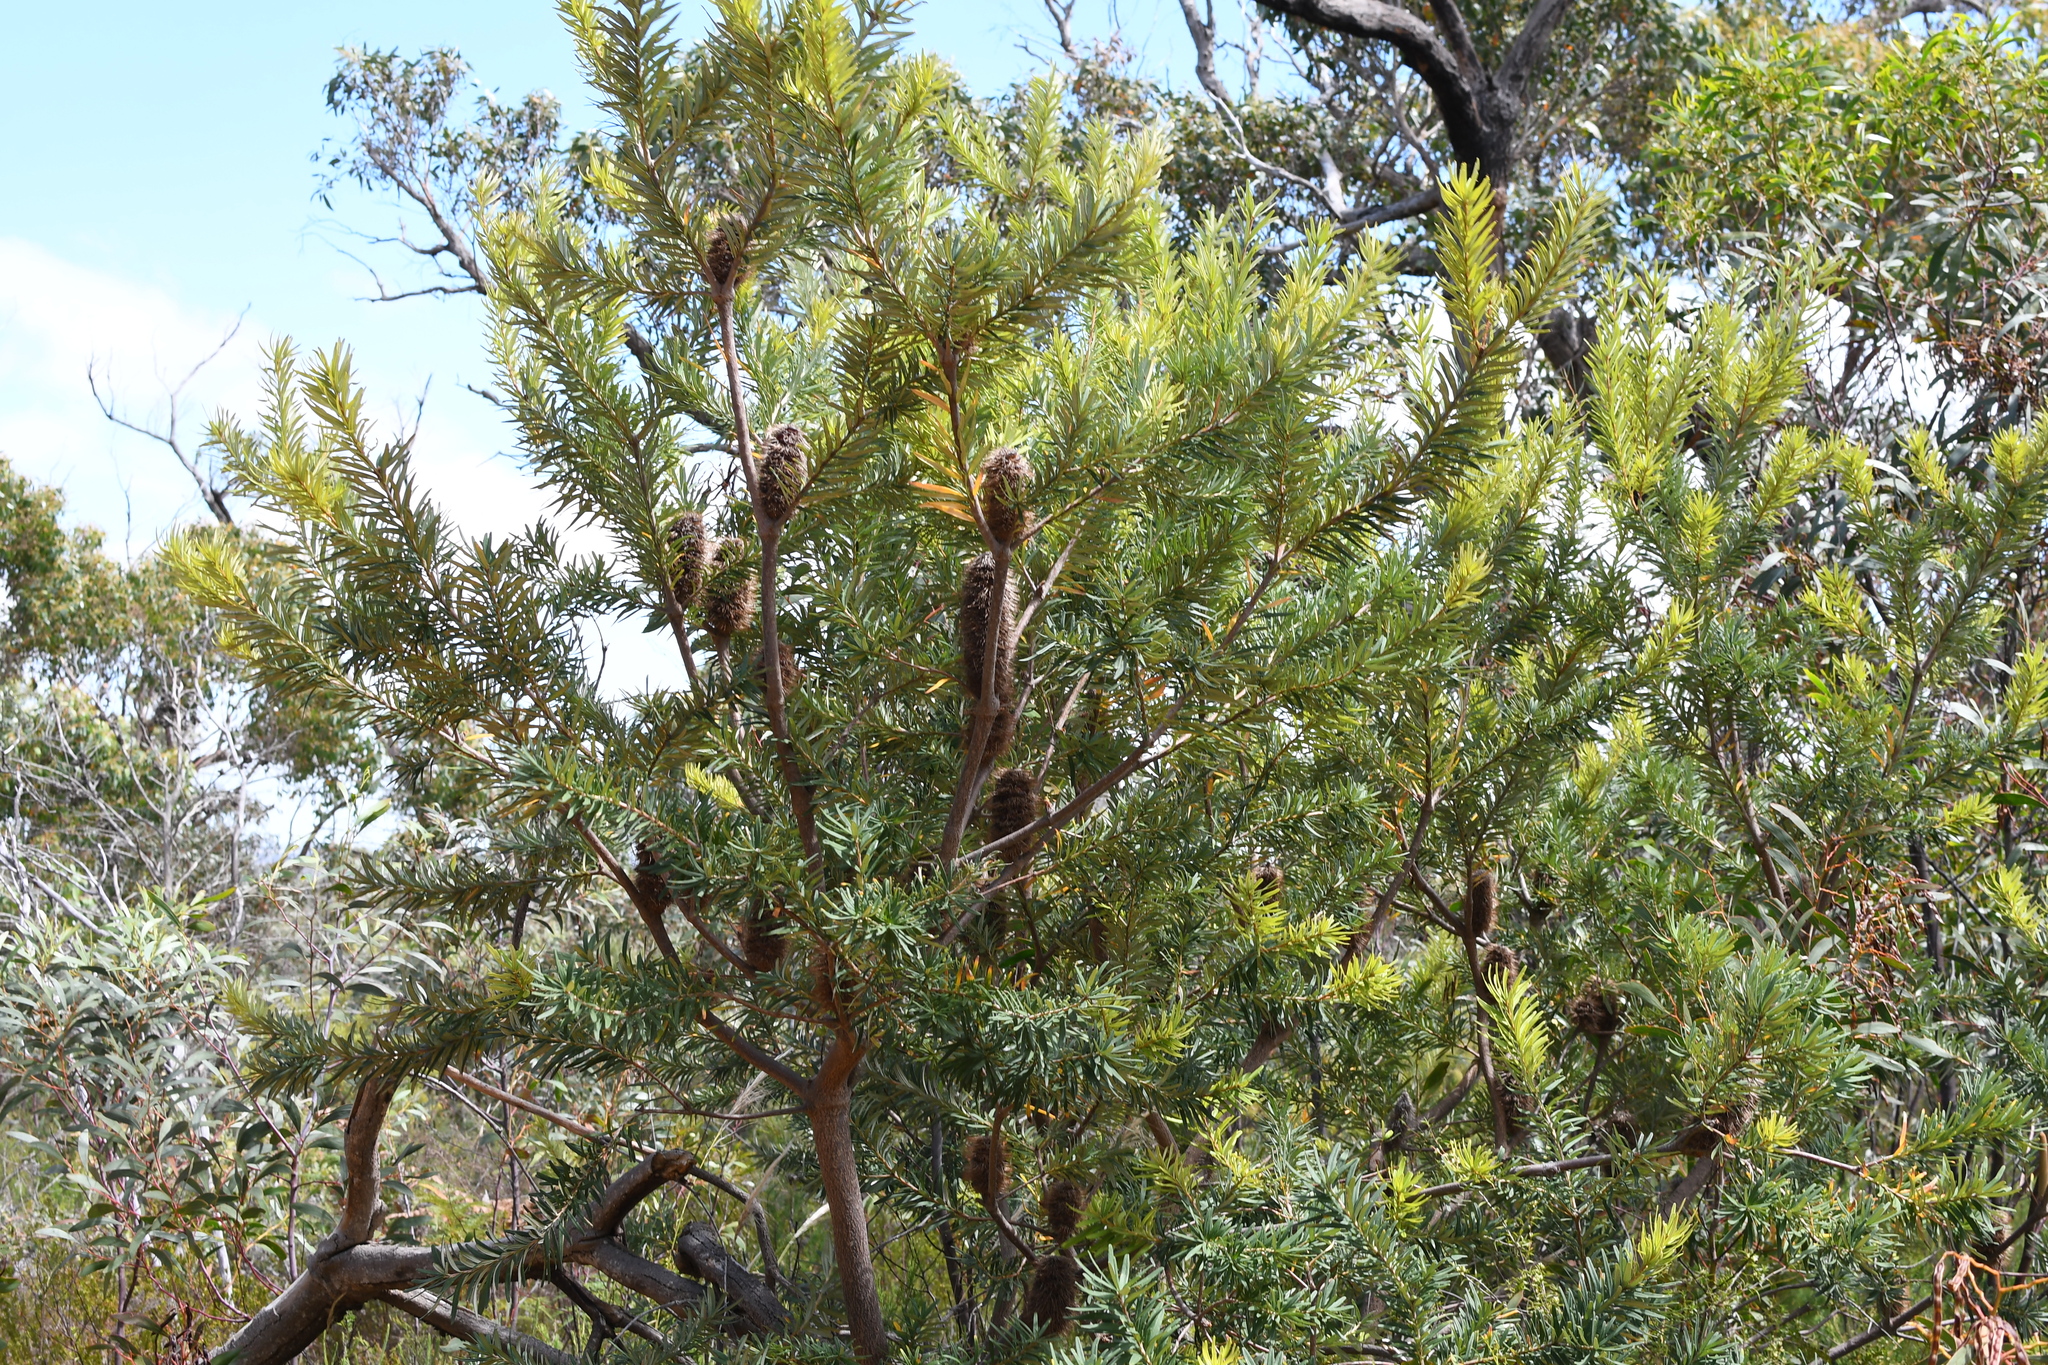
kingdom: Plantae
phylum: Tracheophyta
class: Magnoliopsida
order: Proteales
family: Proteaceae
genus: Banksia
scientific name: Banksia marginata
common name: Silver banksia
